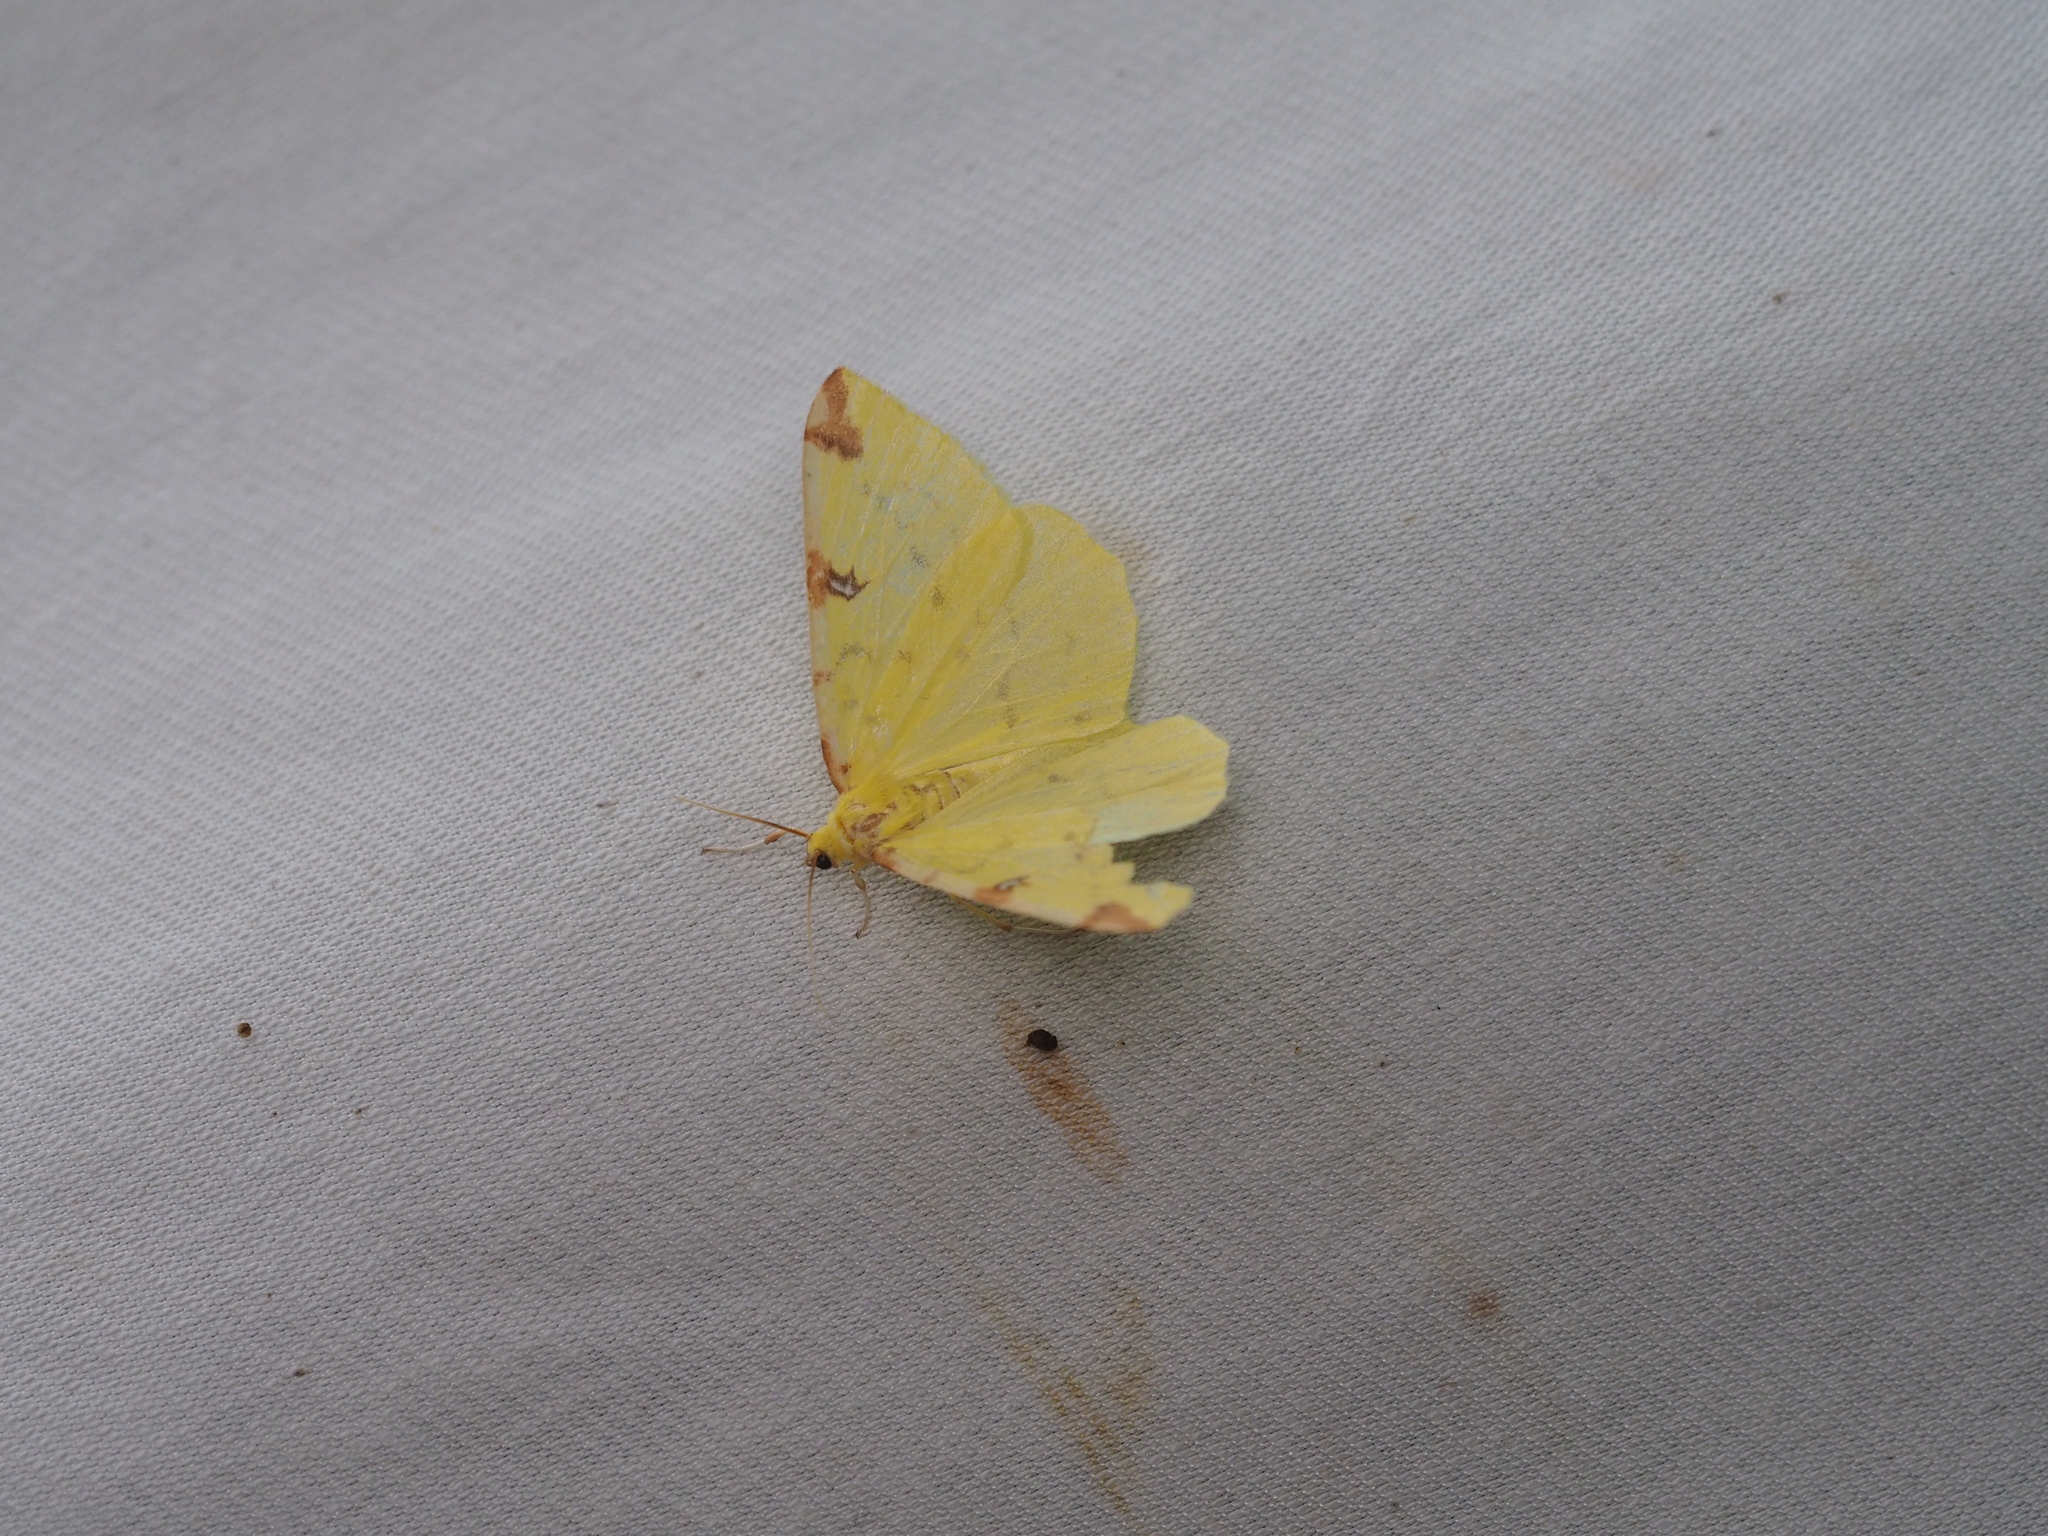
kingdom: Animalia
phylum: Arthropoda
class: Insecta
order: Lepidoptera
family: Geometridae
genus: Opisthograptis
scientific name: Opisthograptis luteolata
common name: Brimstone moth
